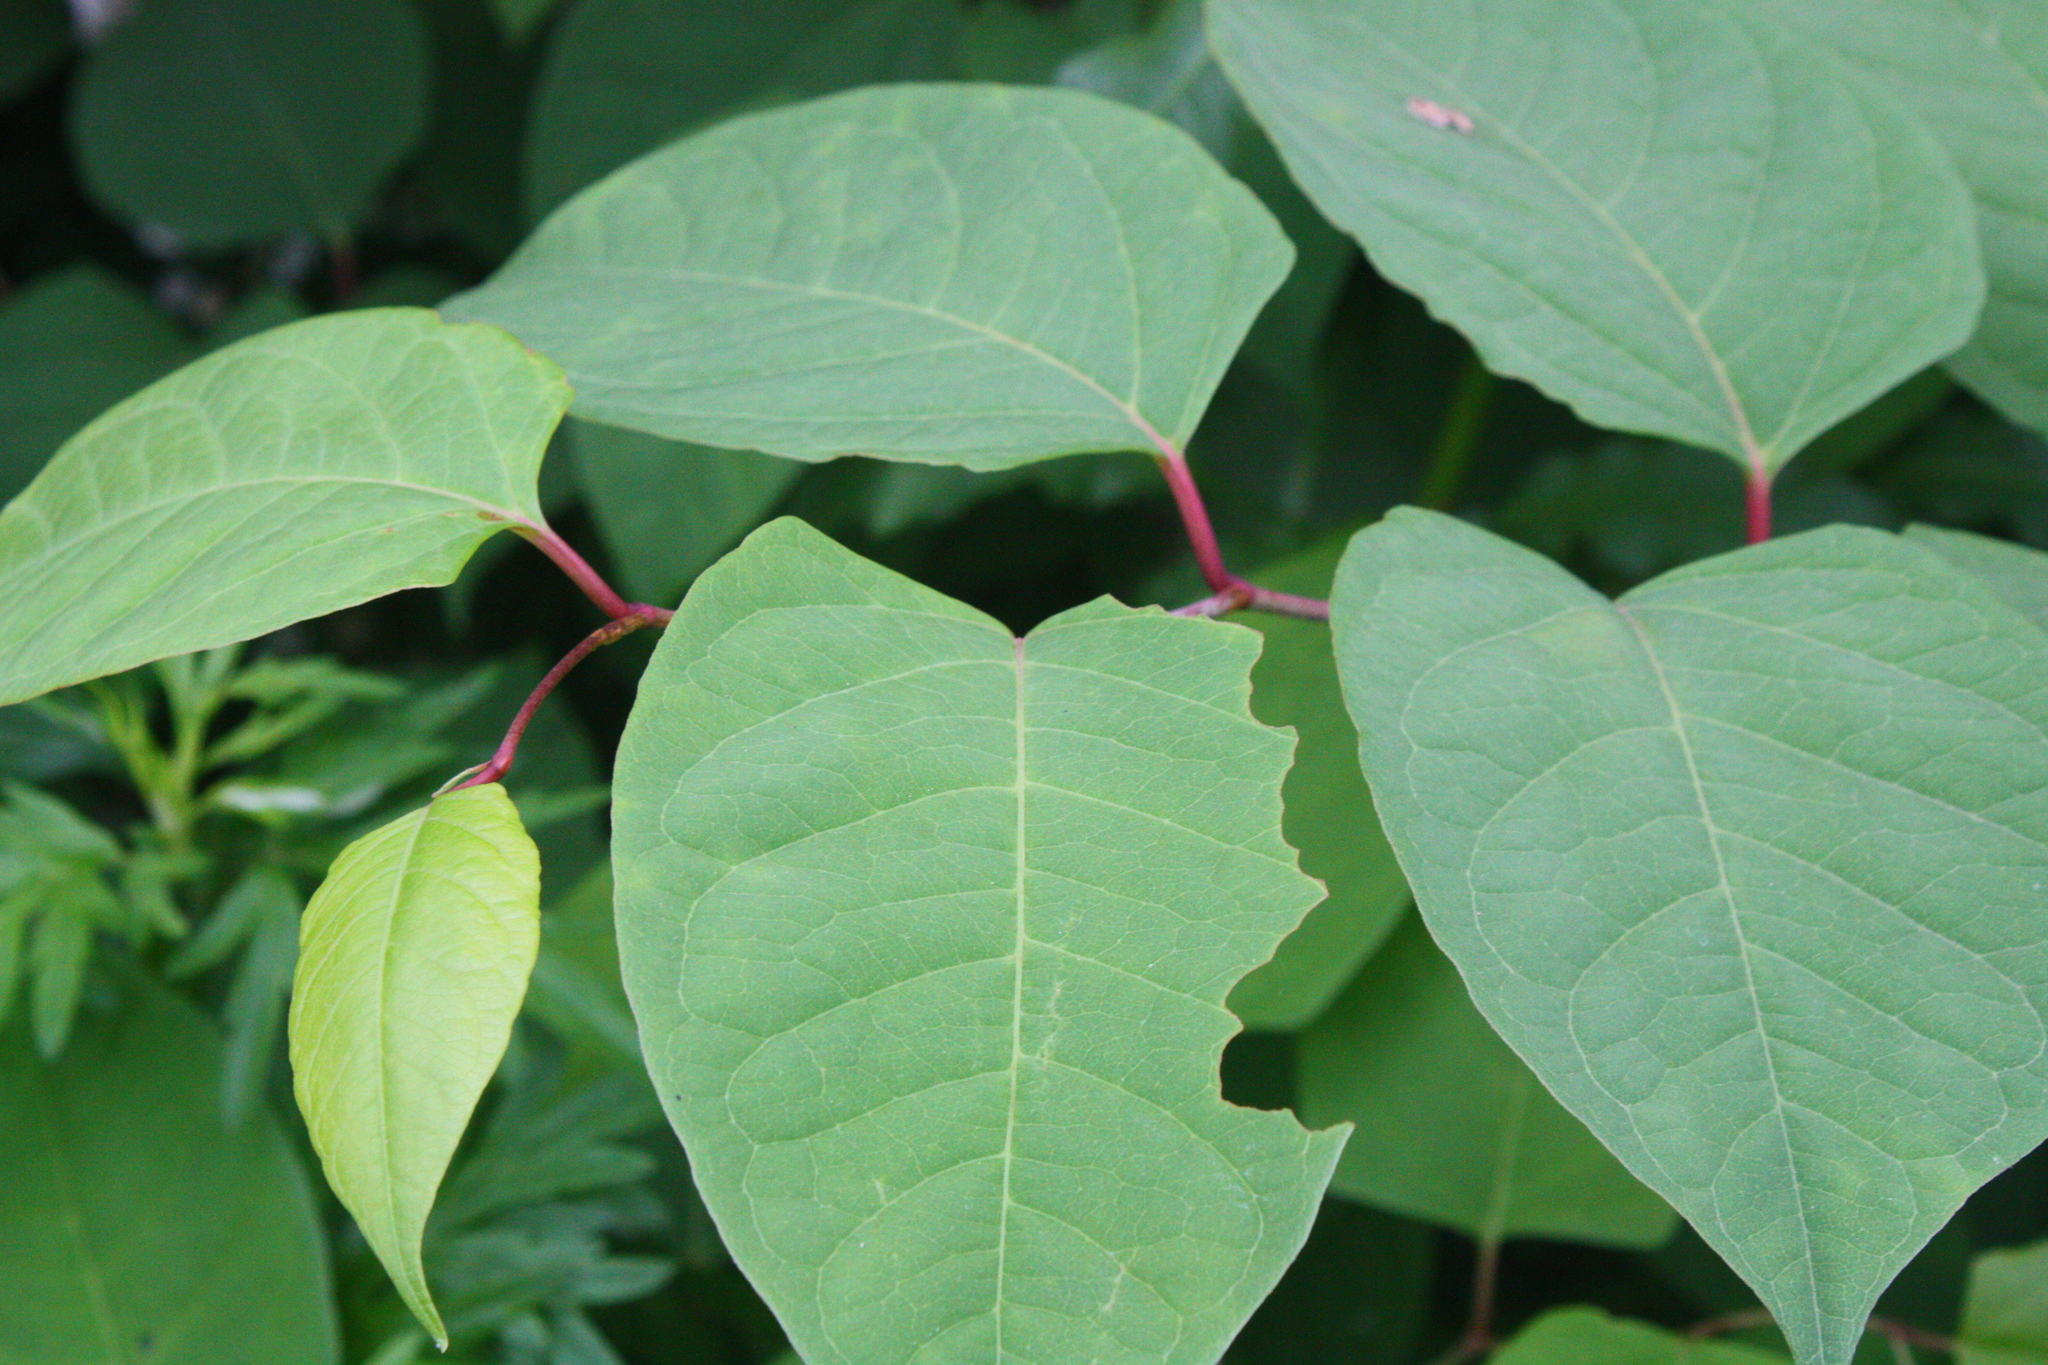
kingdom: Plantae
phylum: Tracheophyta
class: Magnoliopsida
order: Caryophyllales
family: Polygonaceae
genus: Reynoutria
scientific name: Reynoutria japonica
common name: Japanese knotweed
